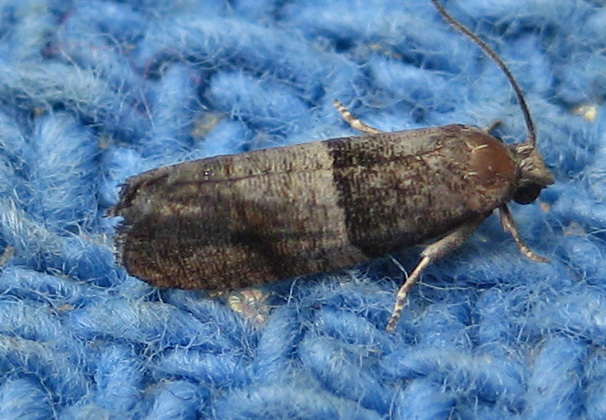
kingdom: Animalia
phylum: Arthropoda
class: Insecta
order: Lepidoptera
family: Tortricidae
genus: Larisa
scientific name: Larisa subsolana
